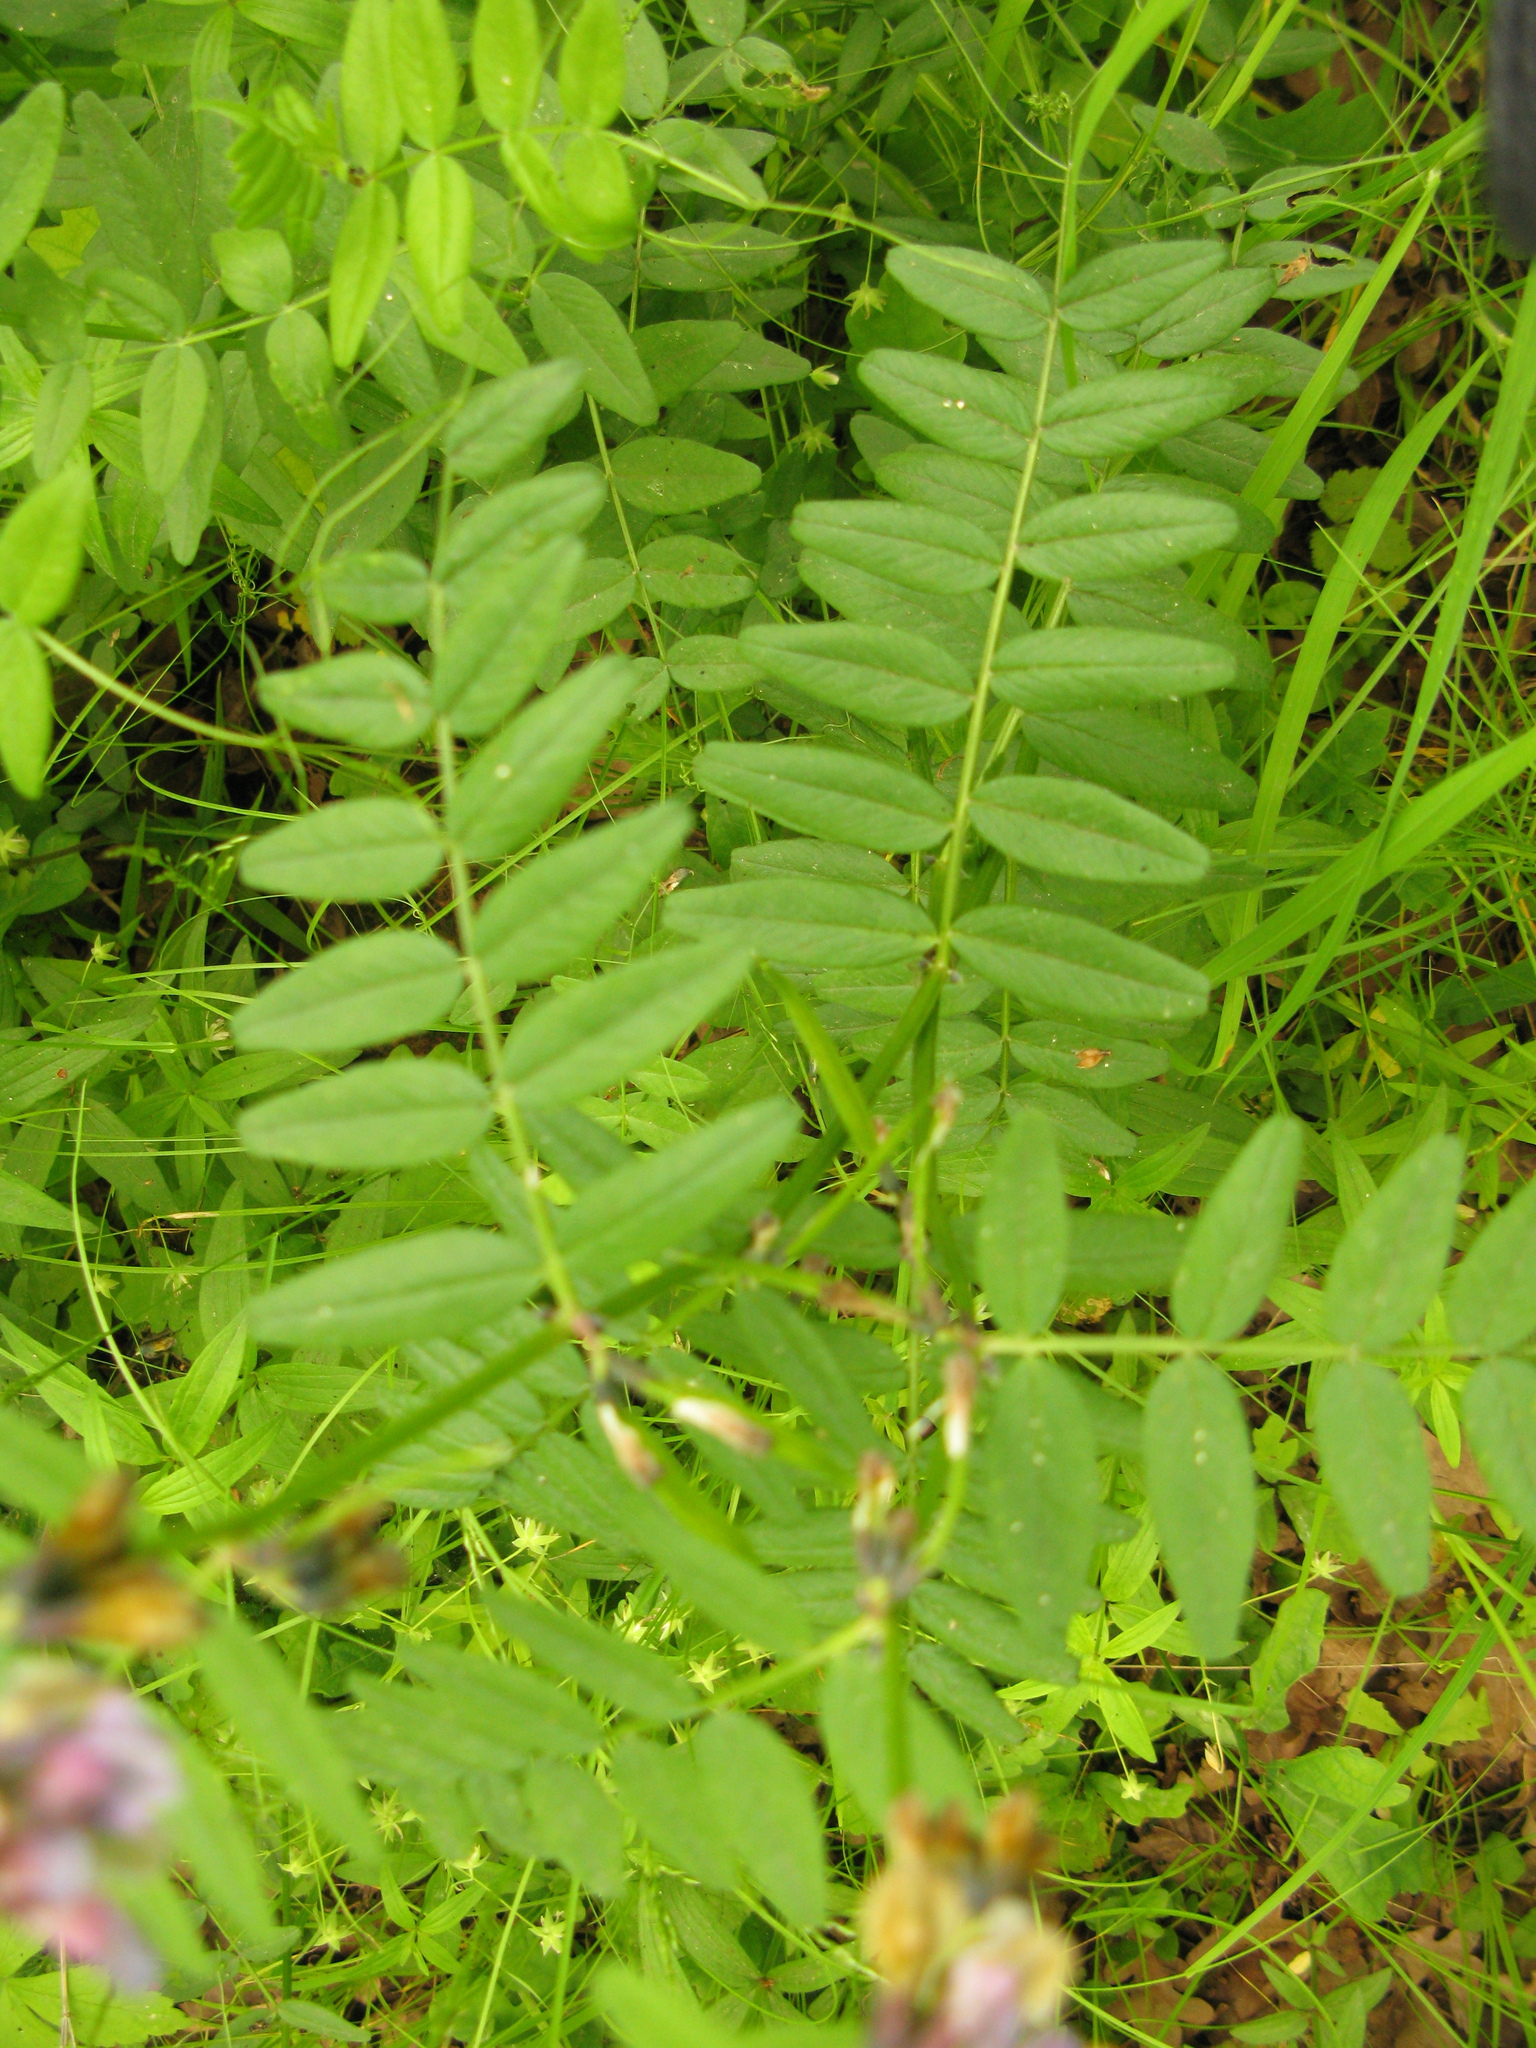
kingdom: Plantae
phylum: Tracheophyta
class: Magnoliopsida
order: Fabales
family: Fabaceae
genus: Vicia
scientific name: Vicia sepium
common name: Bush vetch
